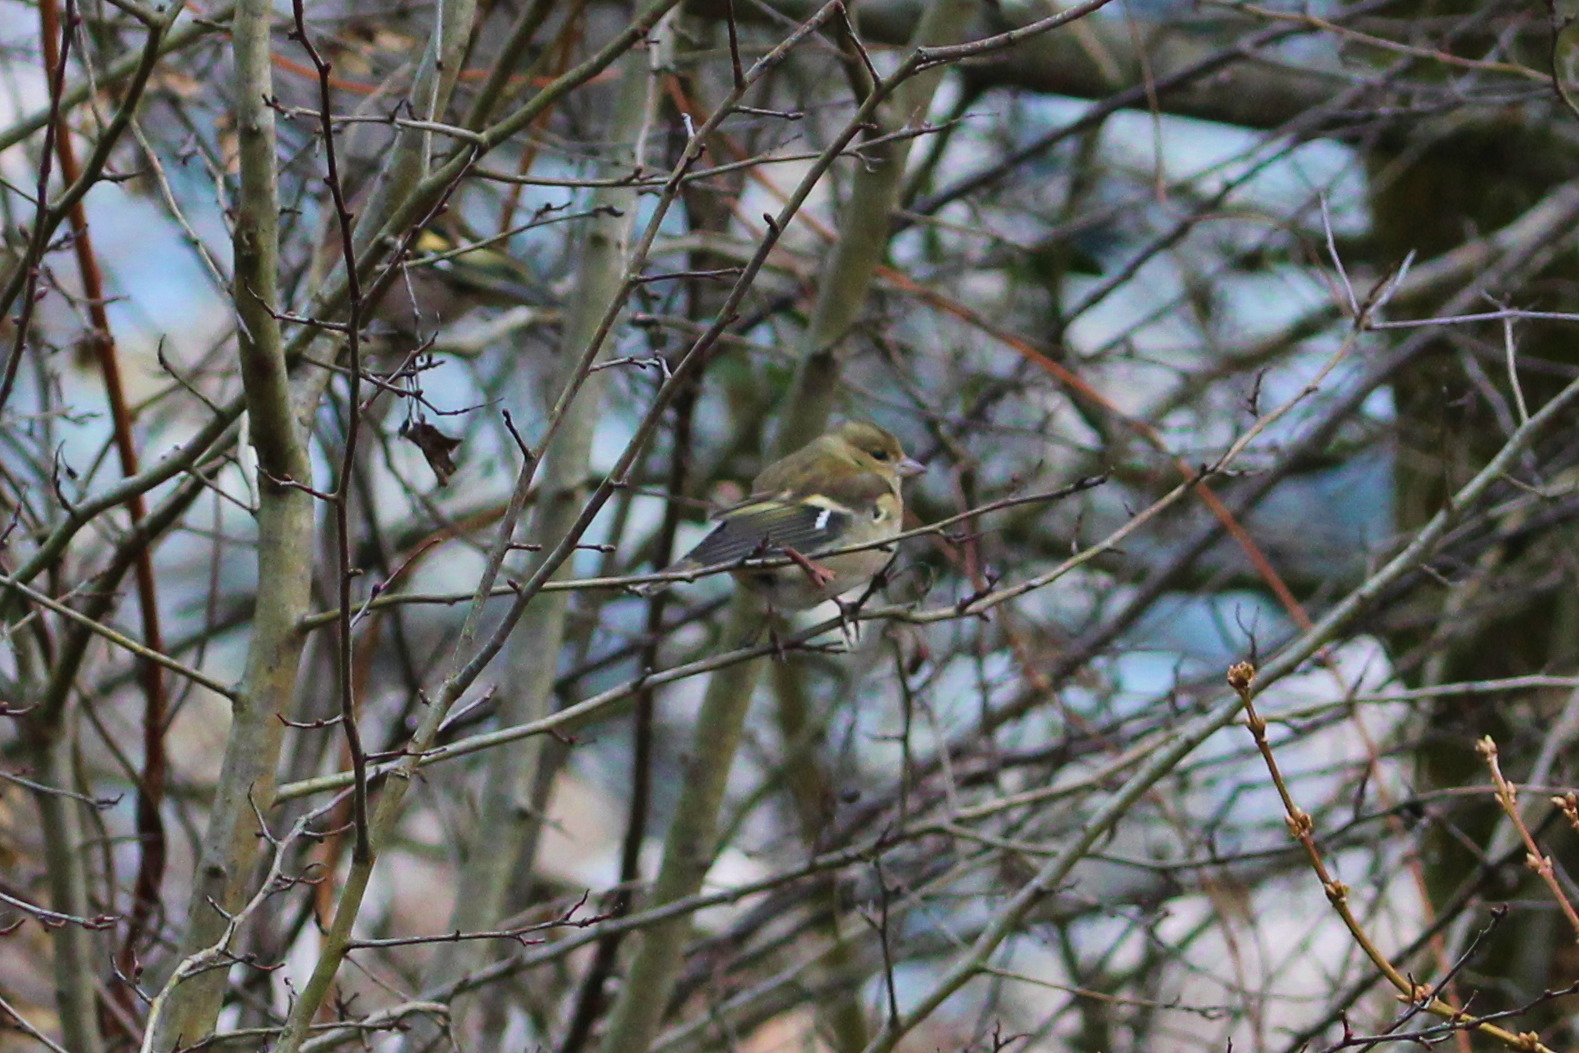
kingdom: Animalia
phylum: Chordata
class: Aves
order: Passeriformes
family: Fringillidae
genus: Fringilla
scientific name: Fringilla coelebs
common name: Common chaffinch
